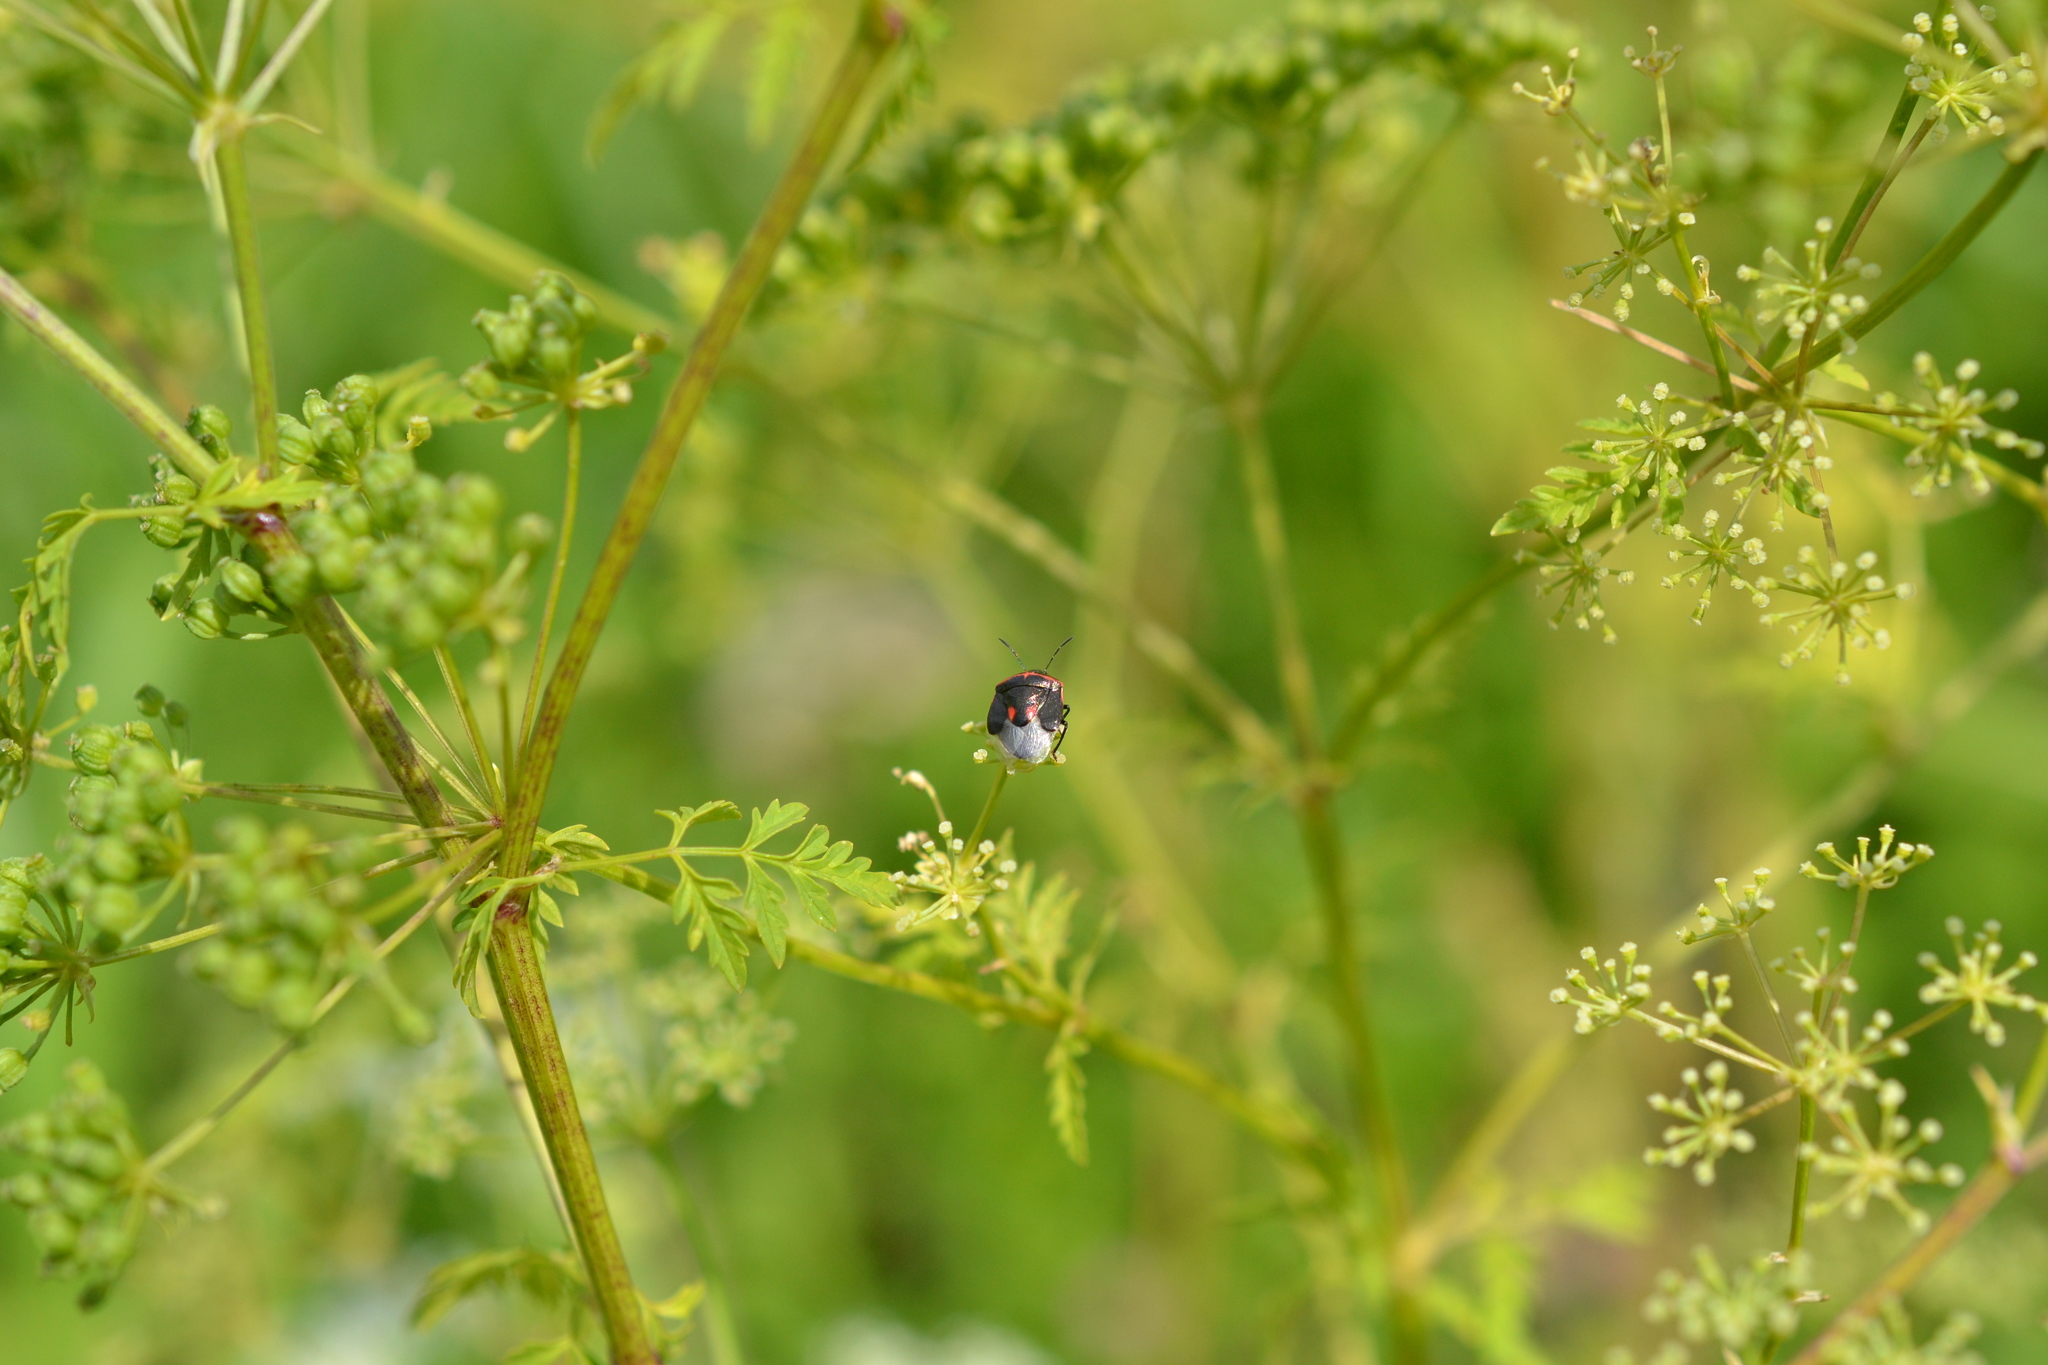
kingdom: Animalia
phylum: Arthropoda
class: Insecta
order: Hemiptera
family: Pentatomidae
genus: Cosmopepla
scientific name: Cosmopepla lintneriana
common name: Twice-stabbed stink bug
